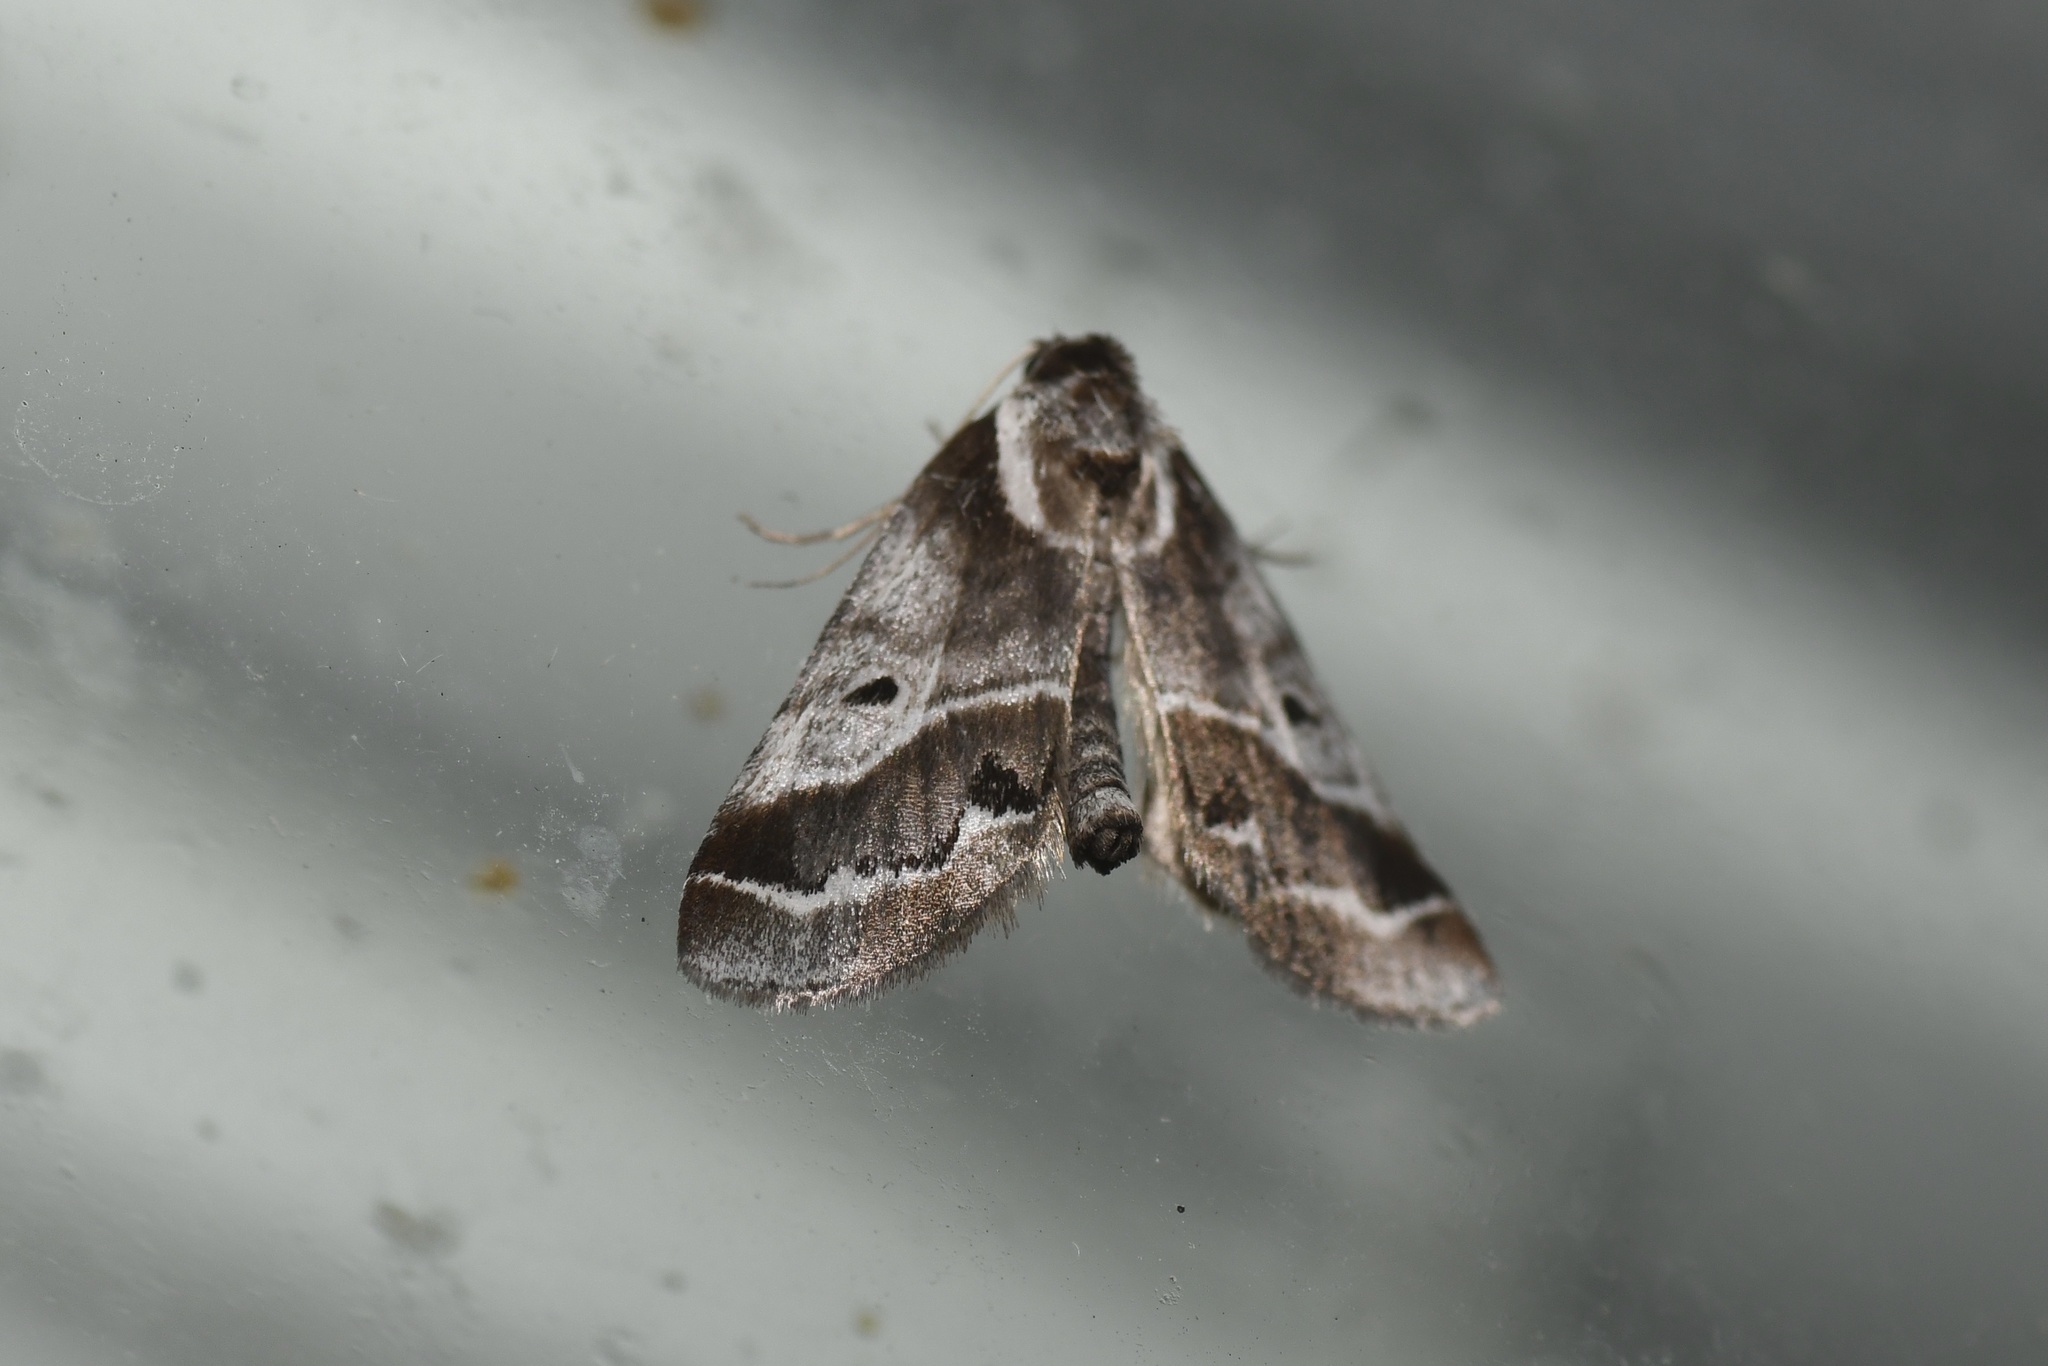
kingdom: Animalia
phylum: Arthropoda
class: Insecta
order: Lepidoptera
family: Nolidae
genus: Baileya
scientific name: Baileya doubledayi
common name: Doubleday's baileya moth
